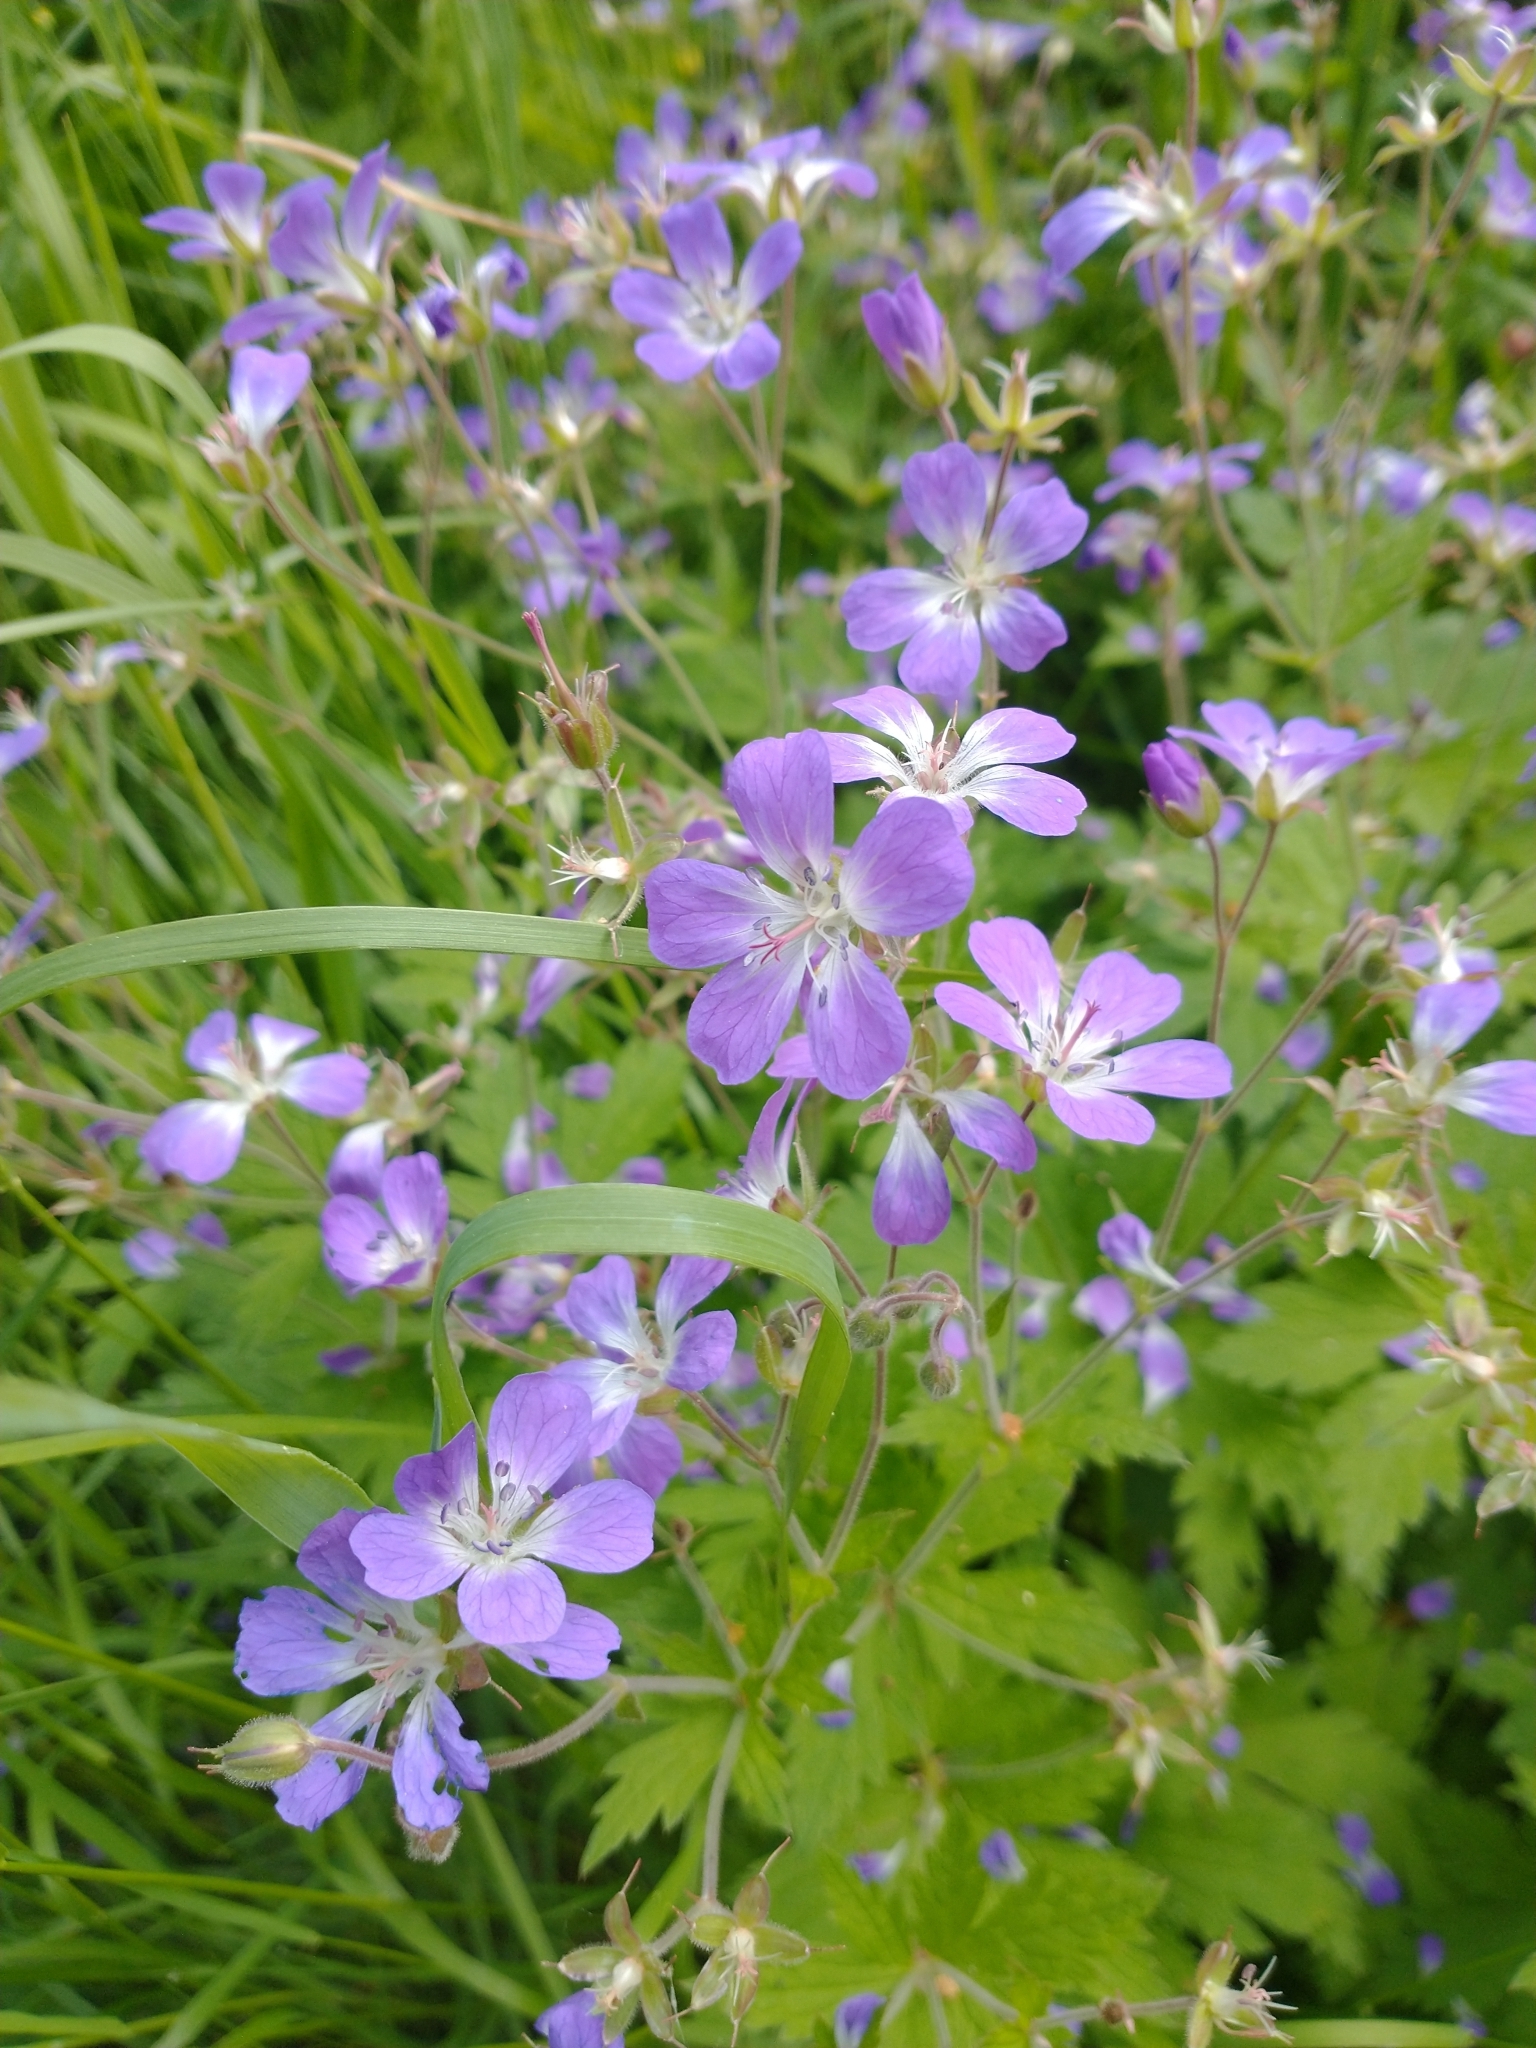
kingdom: Plantae
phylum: Tracheophyta
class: Magnoliopsida
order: Geraniales
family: Geraniaceae
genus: Geranium
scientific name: Geranium sylvaticum
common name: Wood crane's-bill
